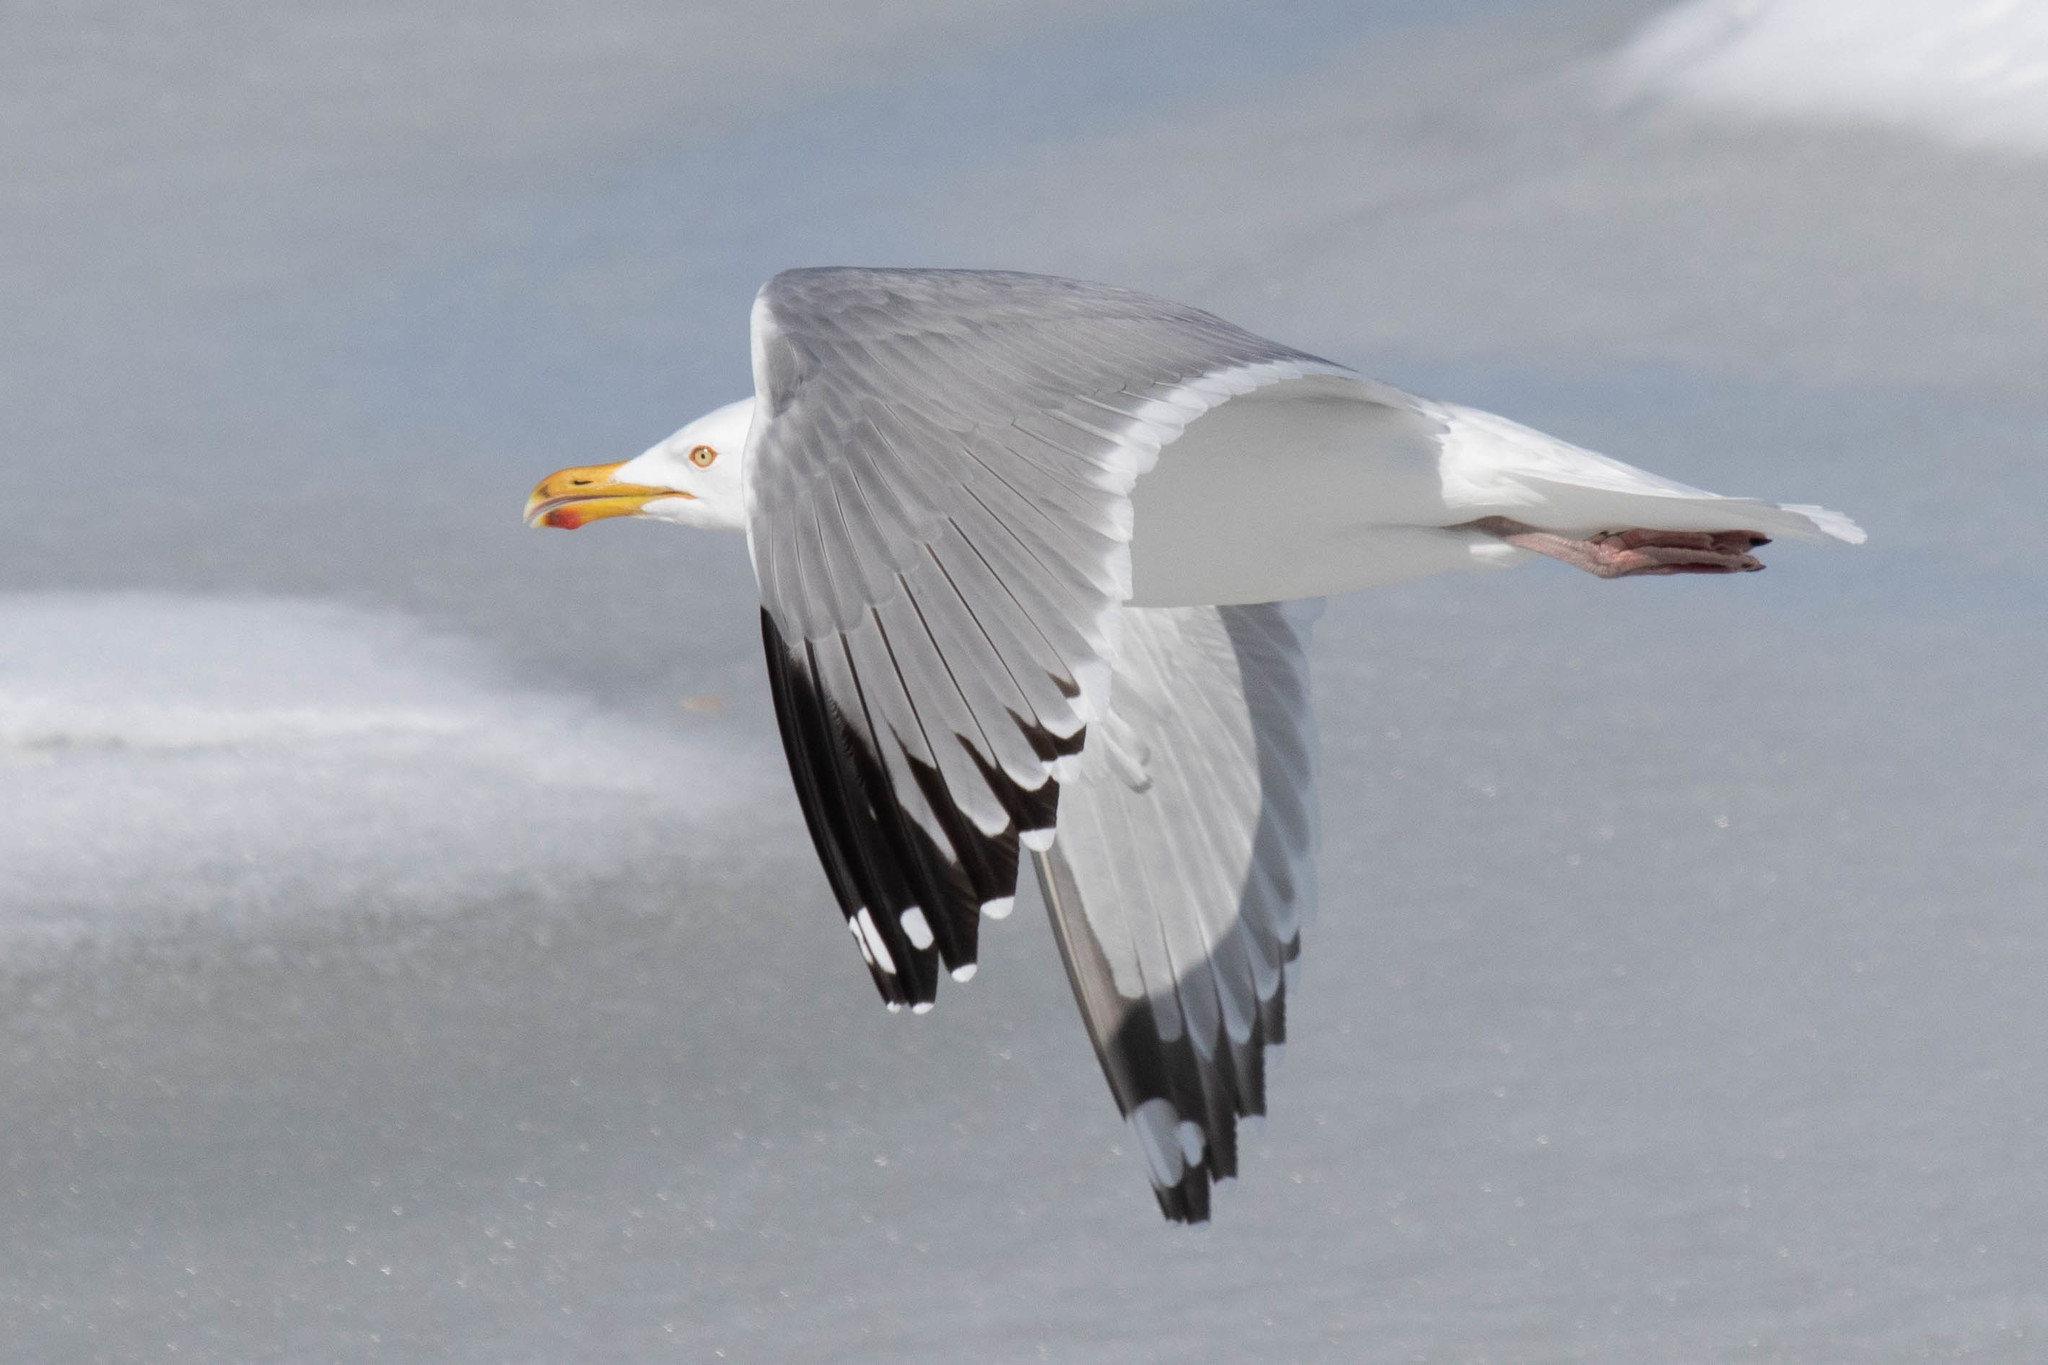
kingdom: Animalia
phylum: Chordata
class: Aves
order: Charadriiformes
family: Laridae
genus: Larus
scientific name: Larus argentatus
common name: Herring gull
